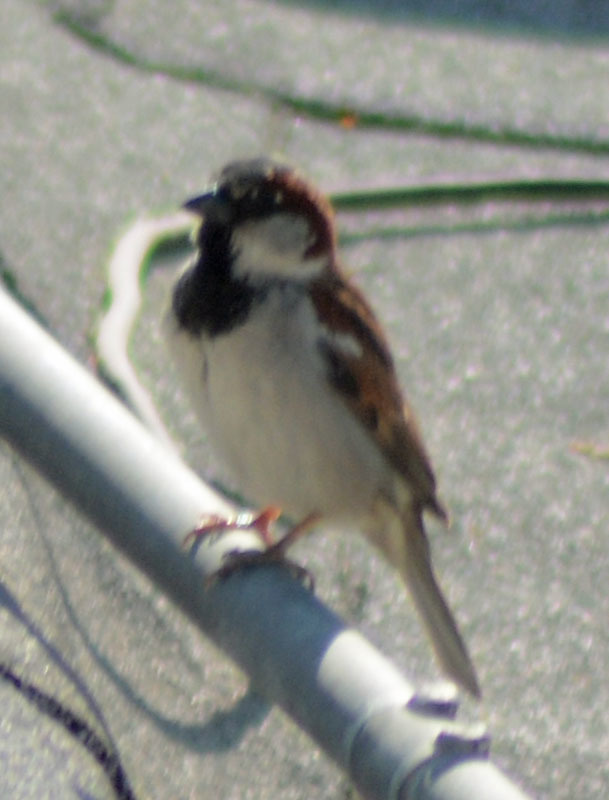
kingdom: Animalia
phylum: Chordata
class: Aves
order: Passeriformes
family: Passeridae
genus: Passer
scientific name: Passer domesticus
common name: House sparrow
